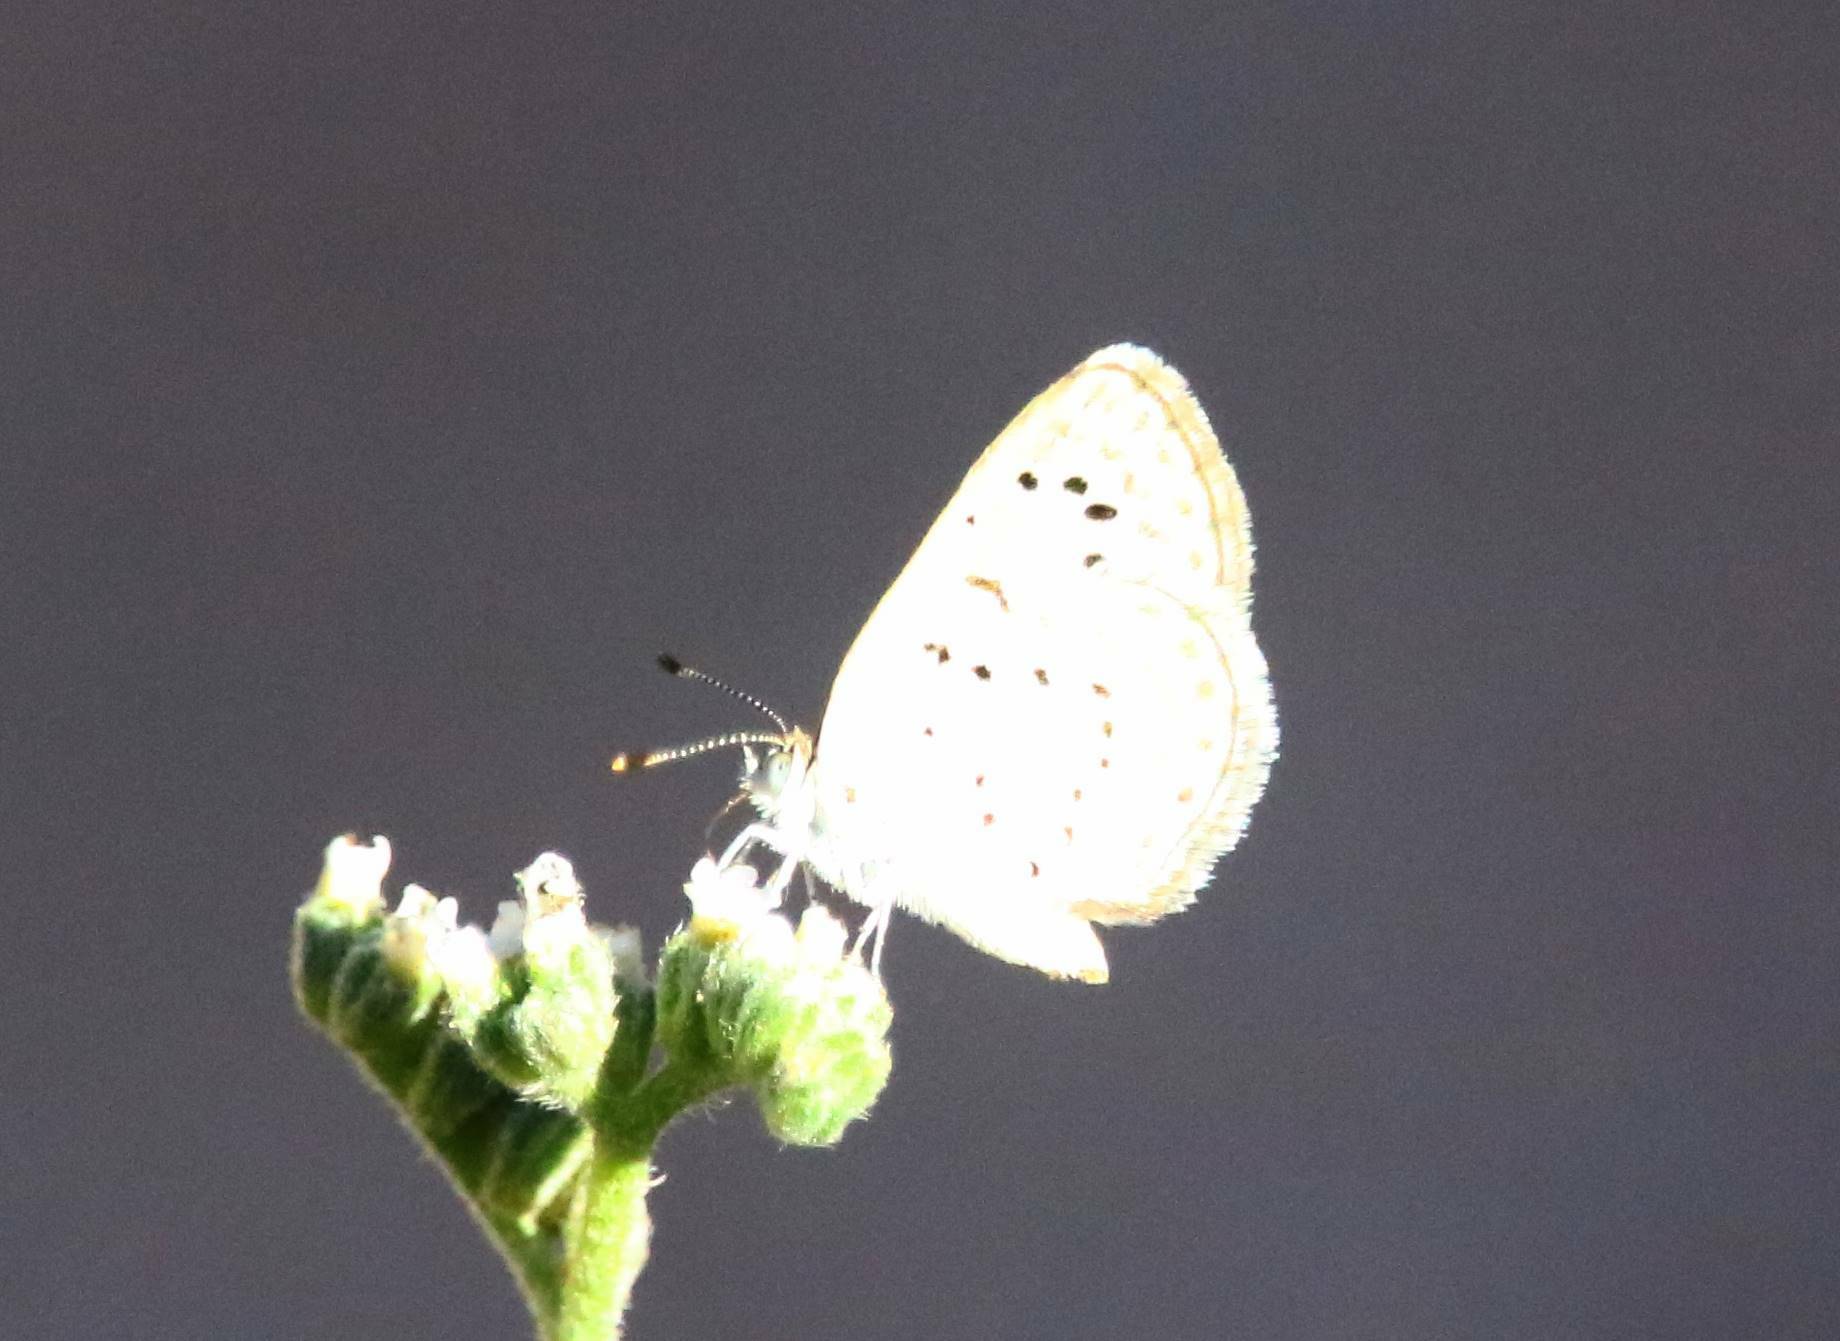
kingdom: Animalia
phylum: Arthropoda
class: Insecta
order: Lepidoptera
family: Lycaenidae
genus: Zizeeria
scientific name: Zizeeria knysna
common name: African grass blue
